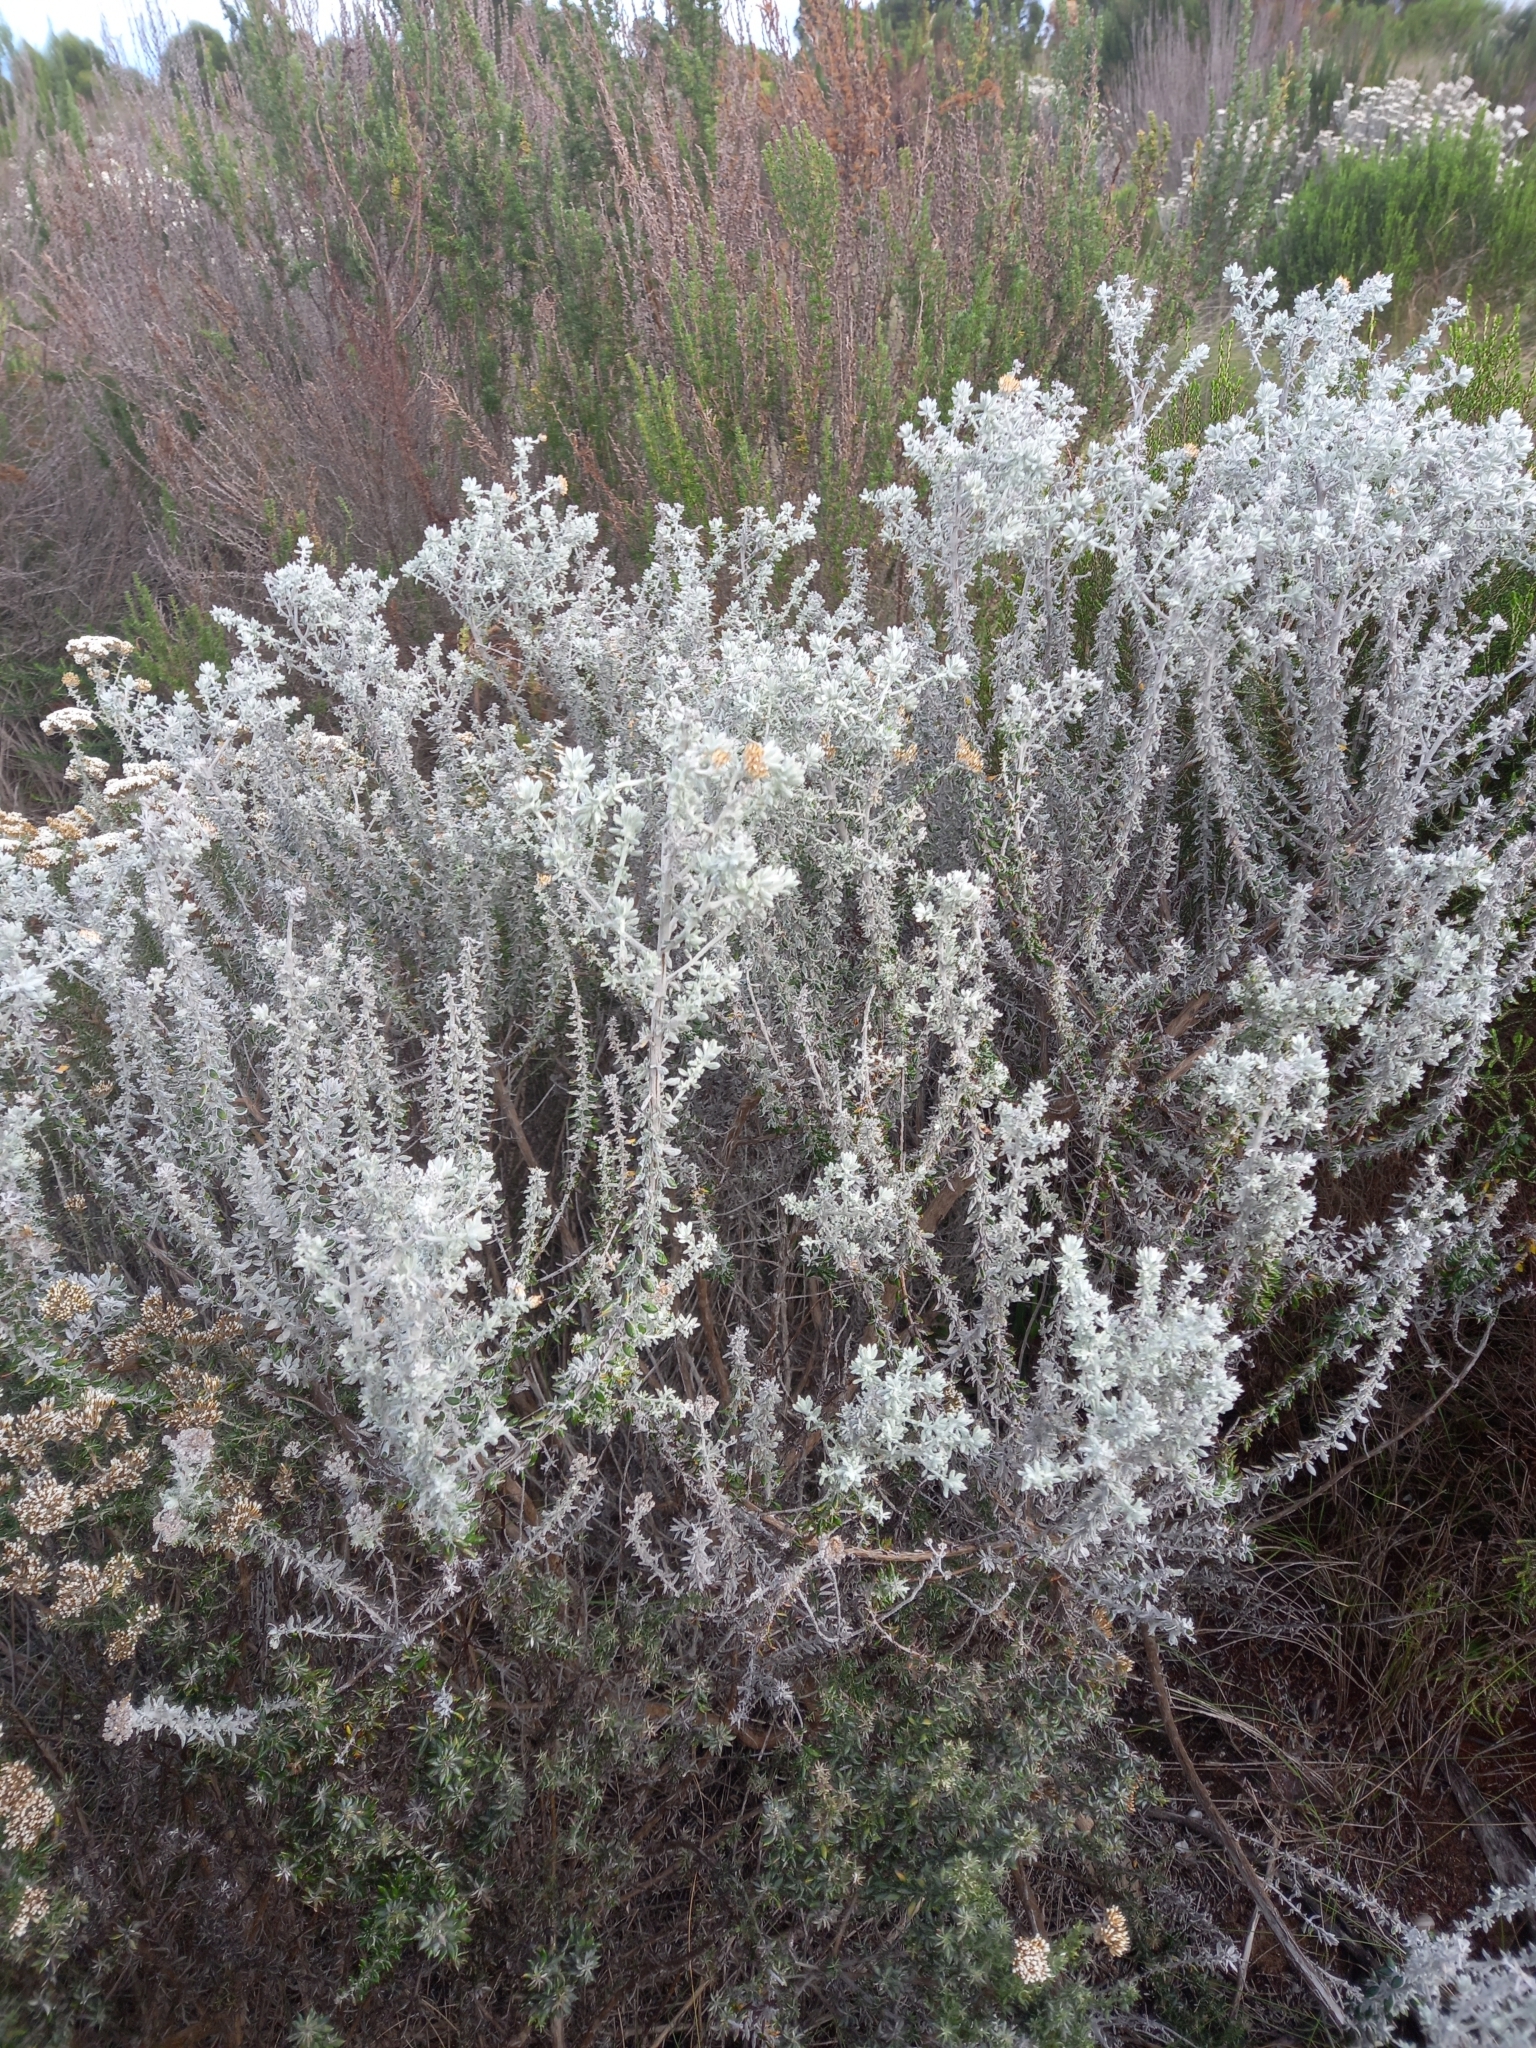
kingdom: Plantae
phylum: Tracheophyta
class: Magnoliopsida
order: Asterales
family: Asteraceae
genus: Metalasia
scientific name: Metalasia densa
